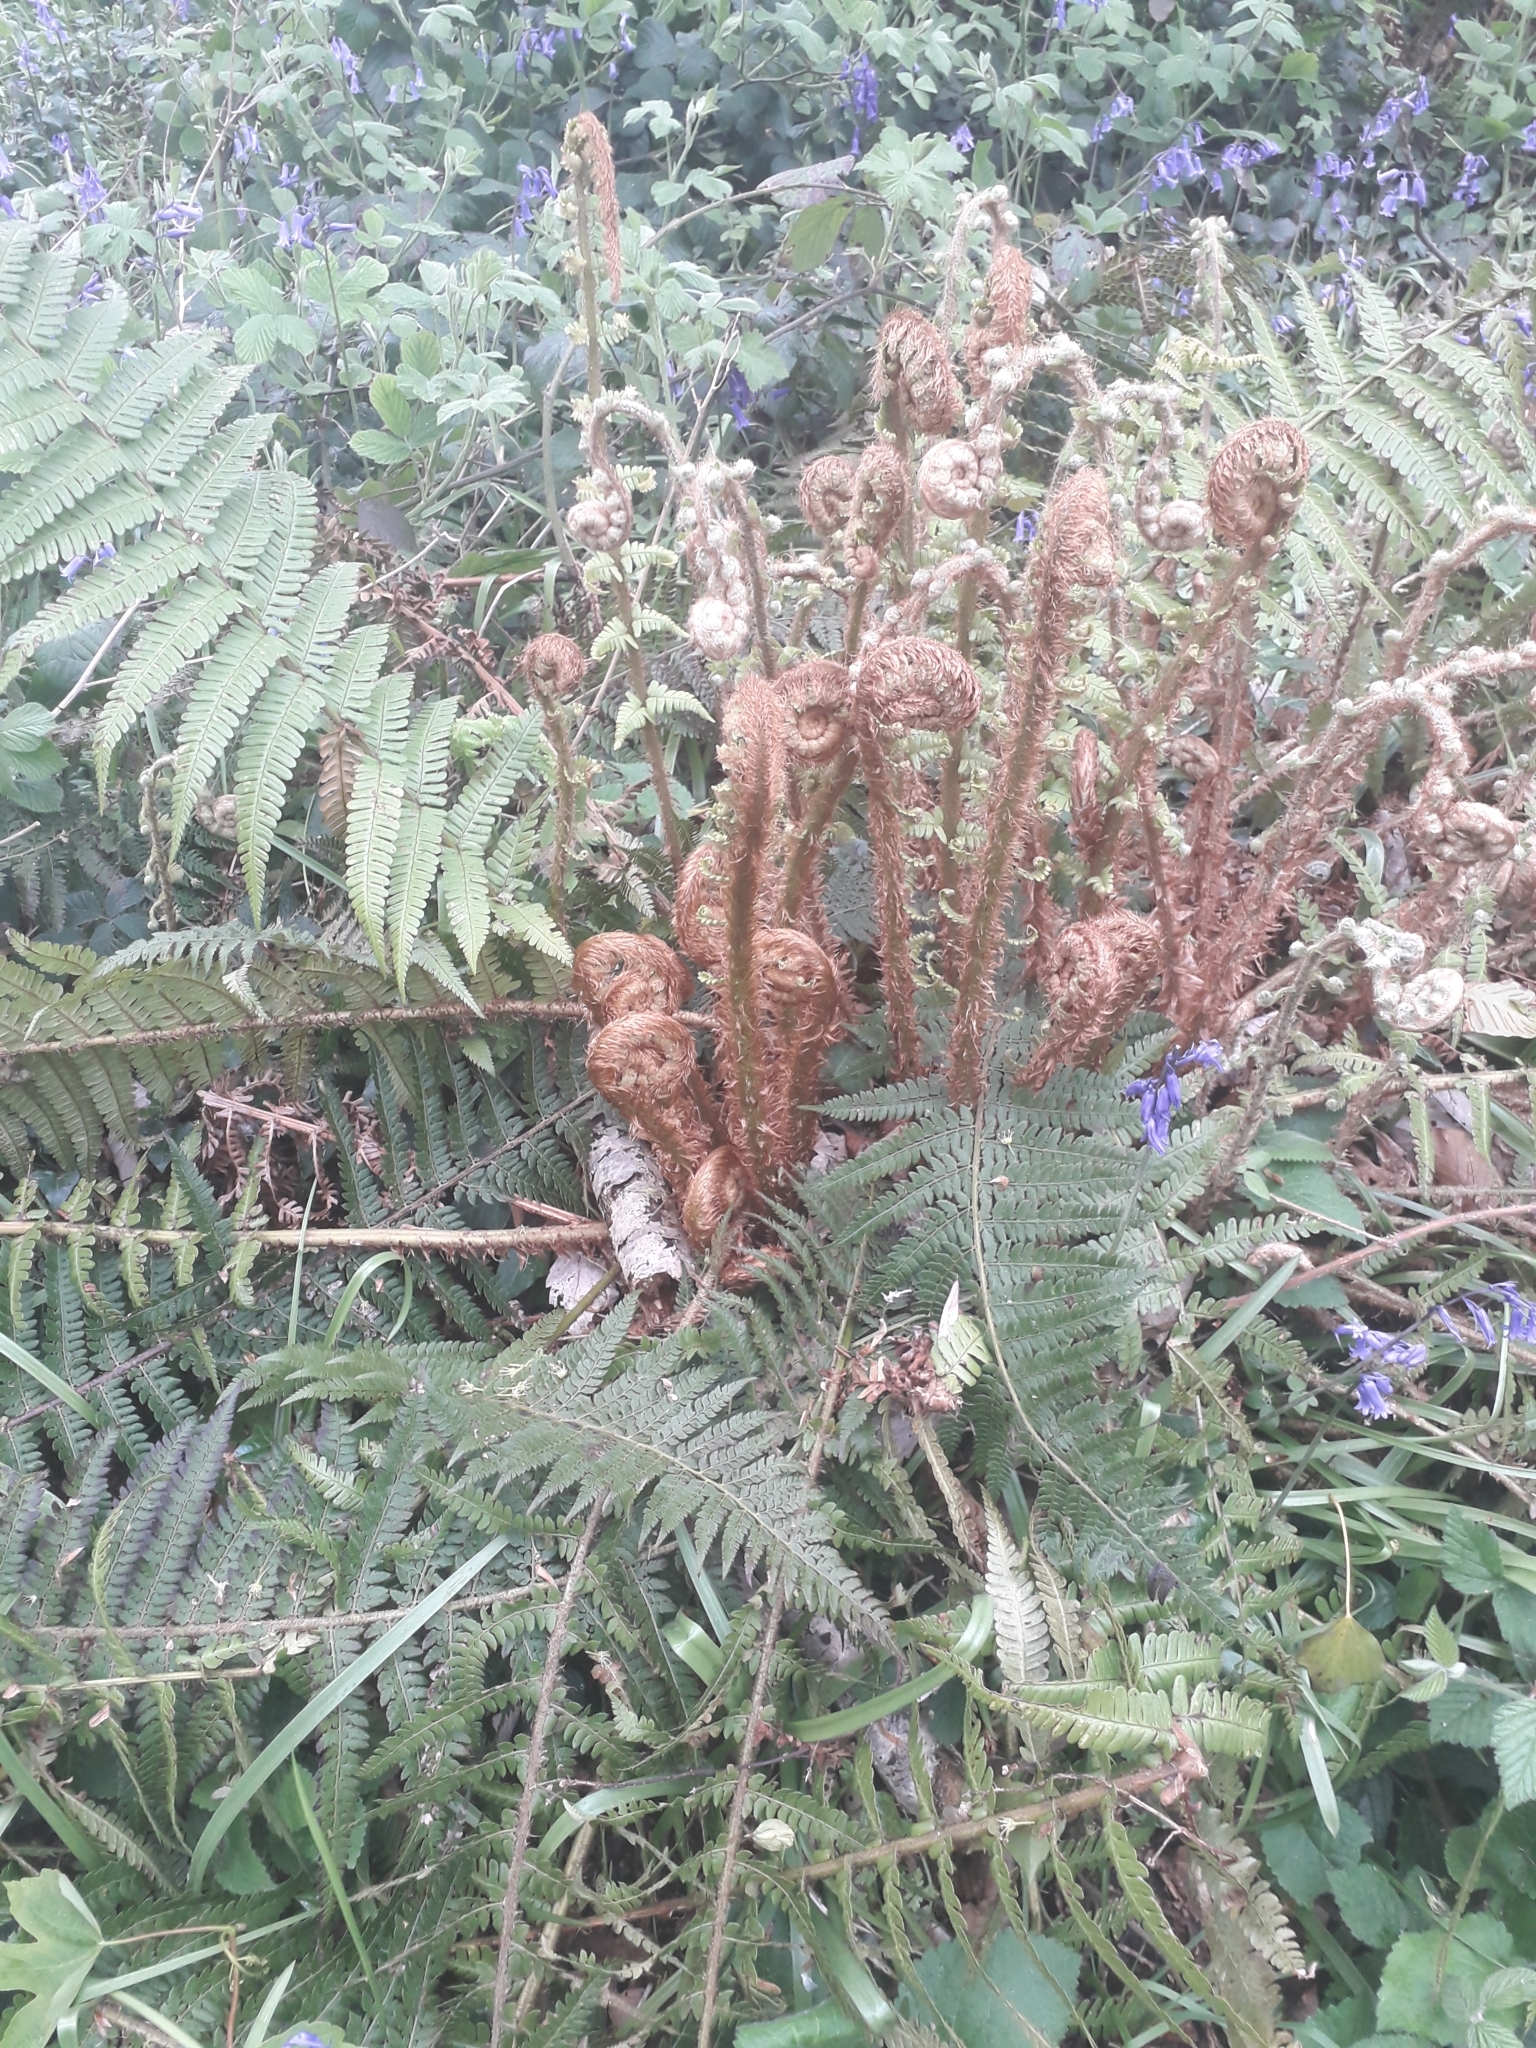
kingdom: Plantae
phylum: Tracheophyta
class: Polypodiopsida
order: Polypodiales
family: Dryopteridaceae
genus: Polystichum
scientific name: Polystichum setiferum
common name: Soft shield-fern
